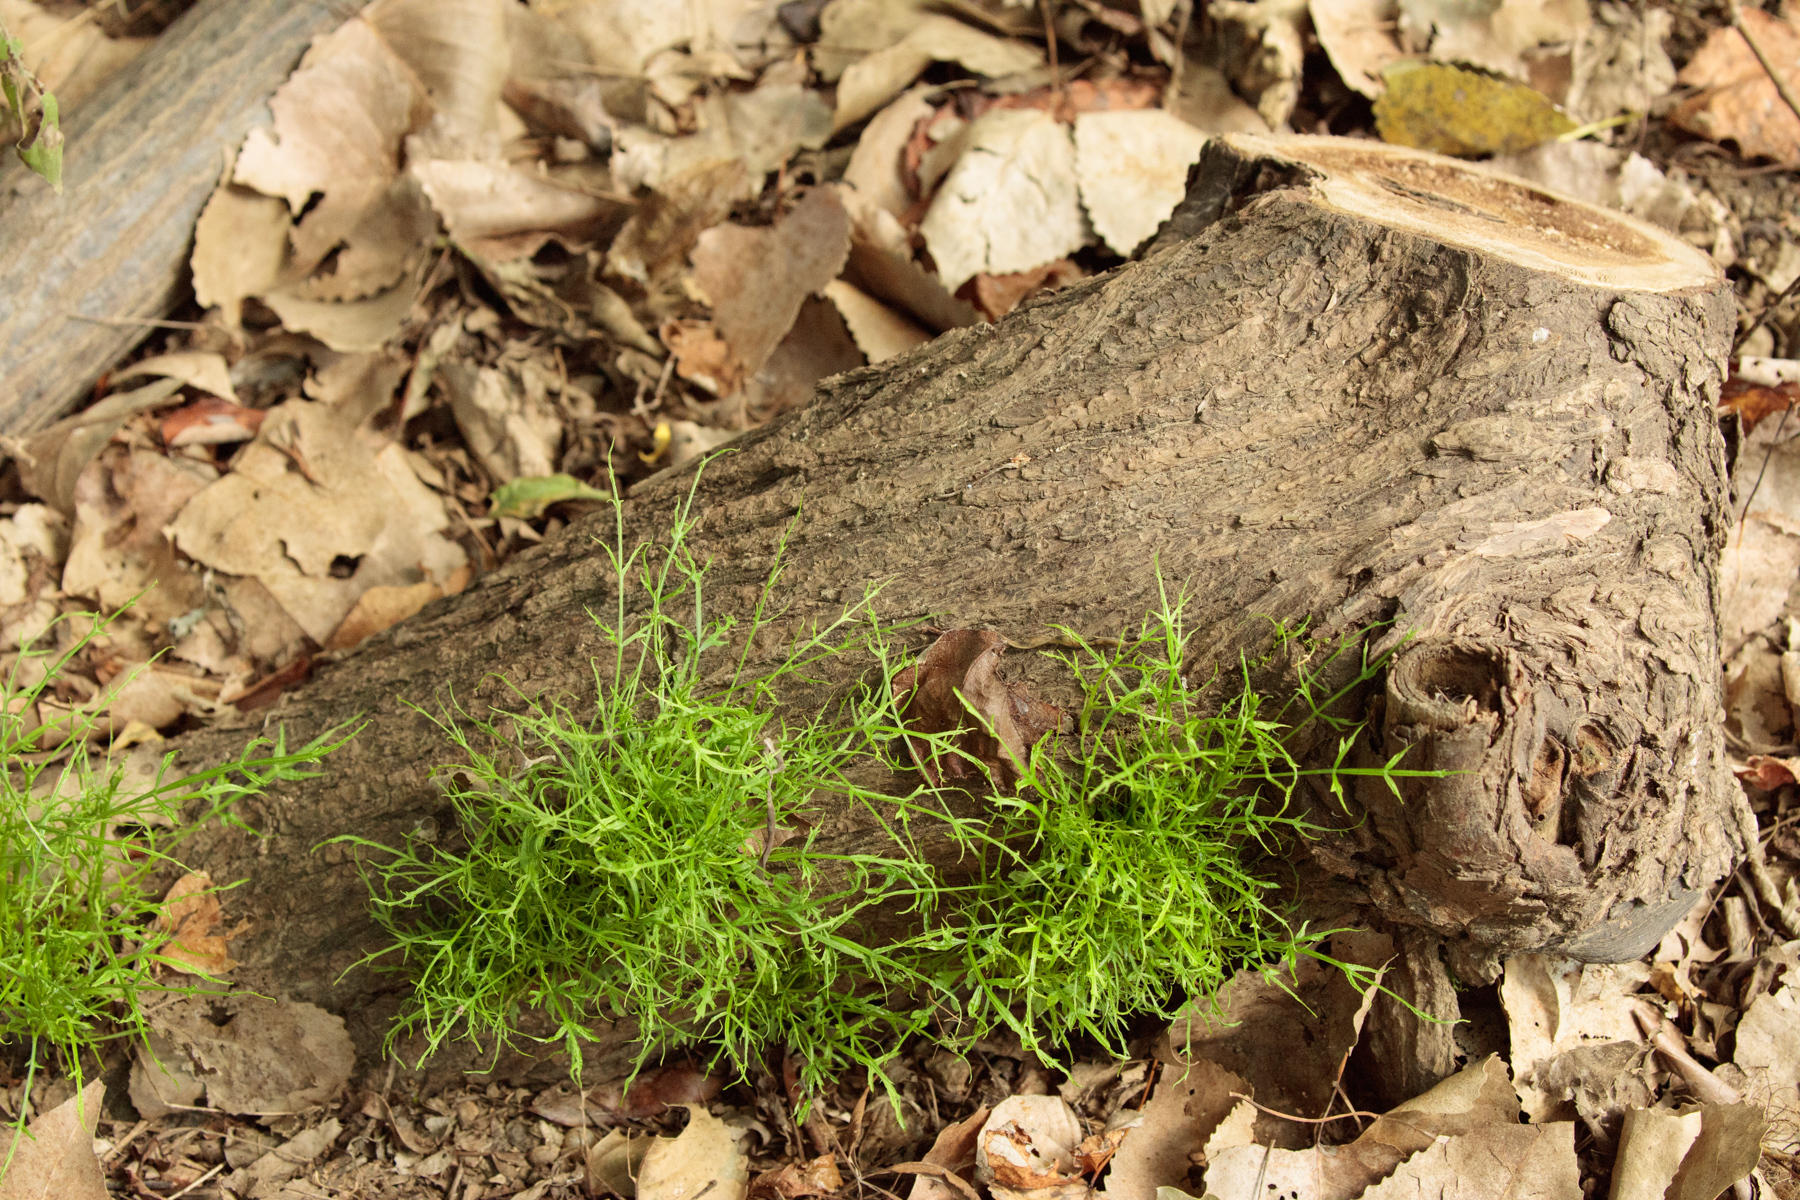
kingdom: Plantae
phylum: Tracheophyta
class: Magnoliopsida
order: Sapindales
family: Meliaceae
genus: Melia
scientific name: Melia azedarach
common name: Chinaberrytree
